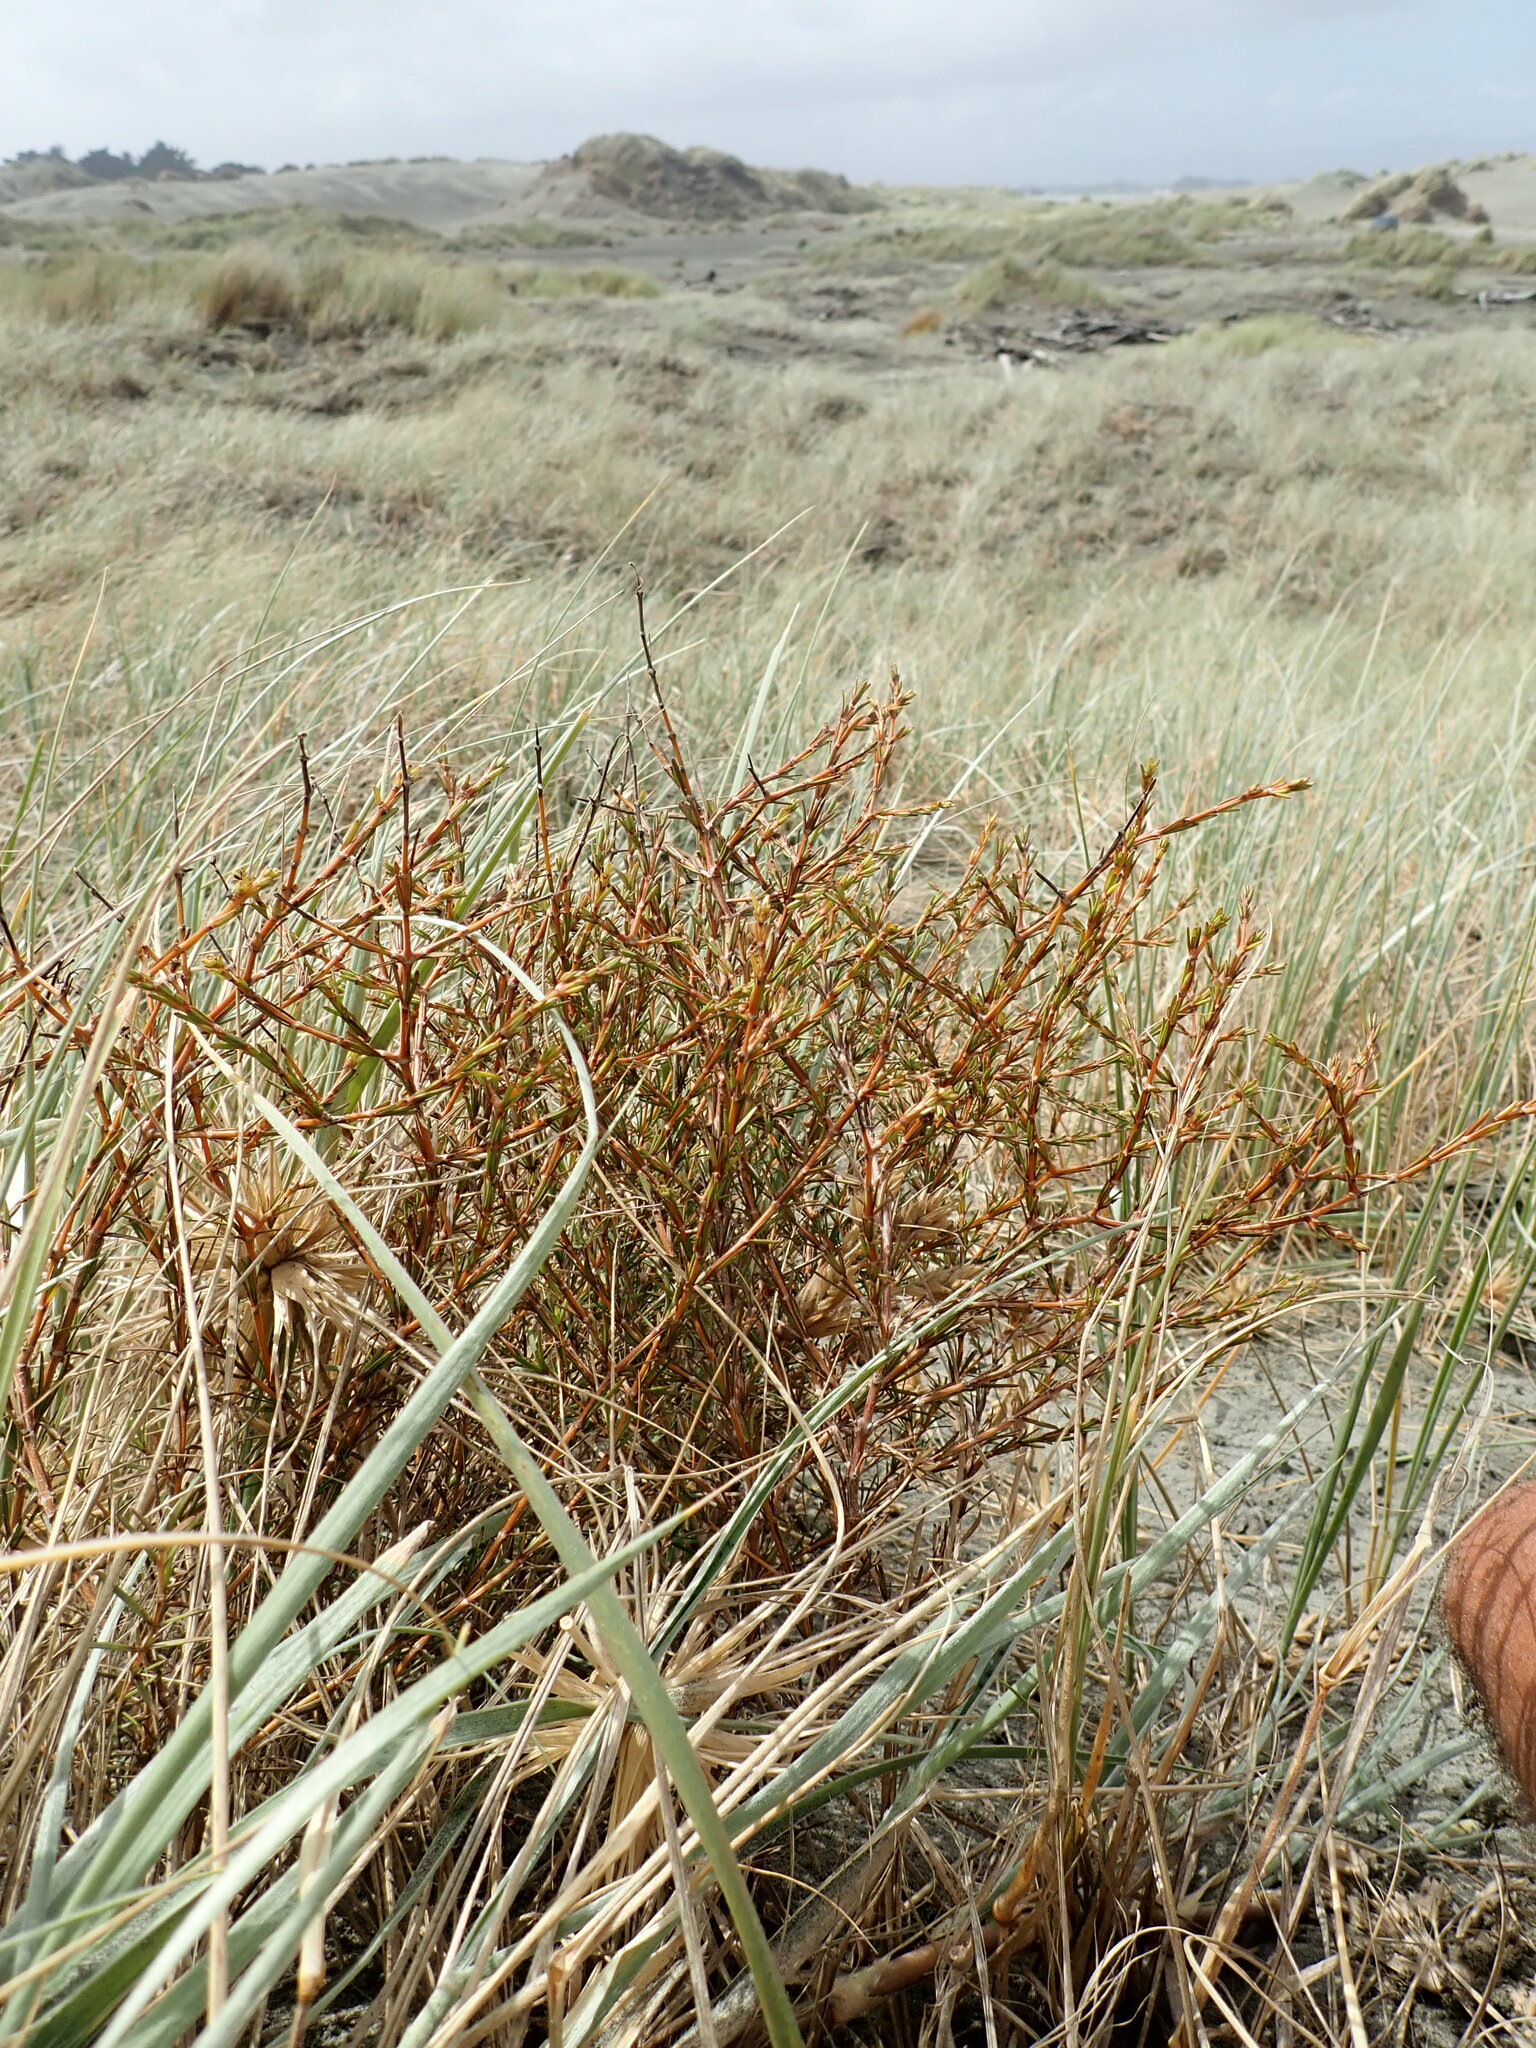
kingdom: Plantae
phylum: Tracheophyta
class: Magnoliopsida
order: Gentianales
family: Rubiaceae
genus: Coprosma
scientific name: Coprosma acerosa
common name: Sand coprosma
